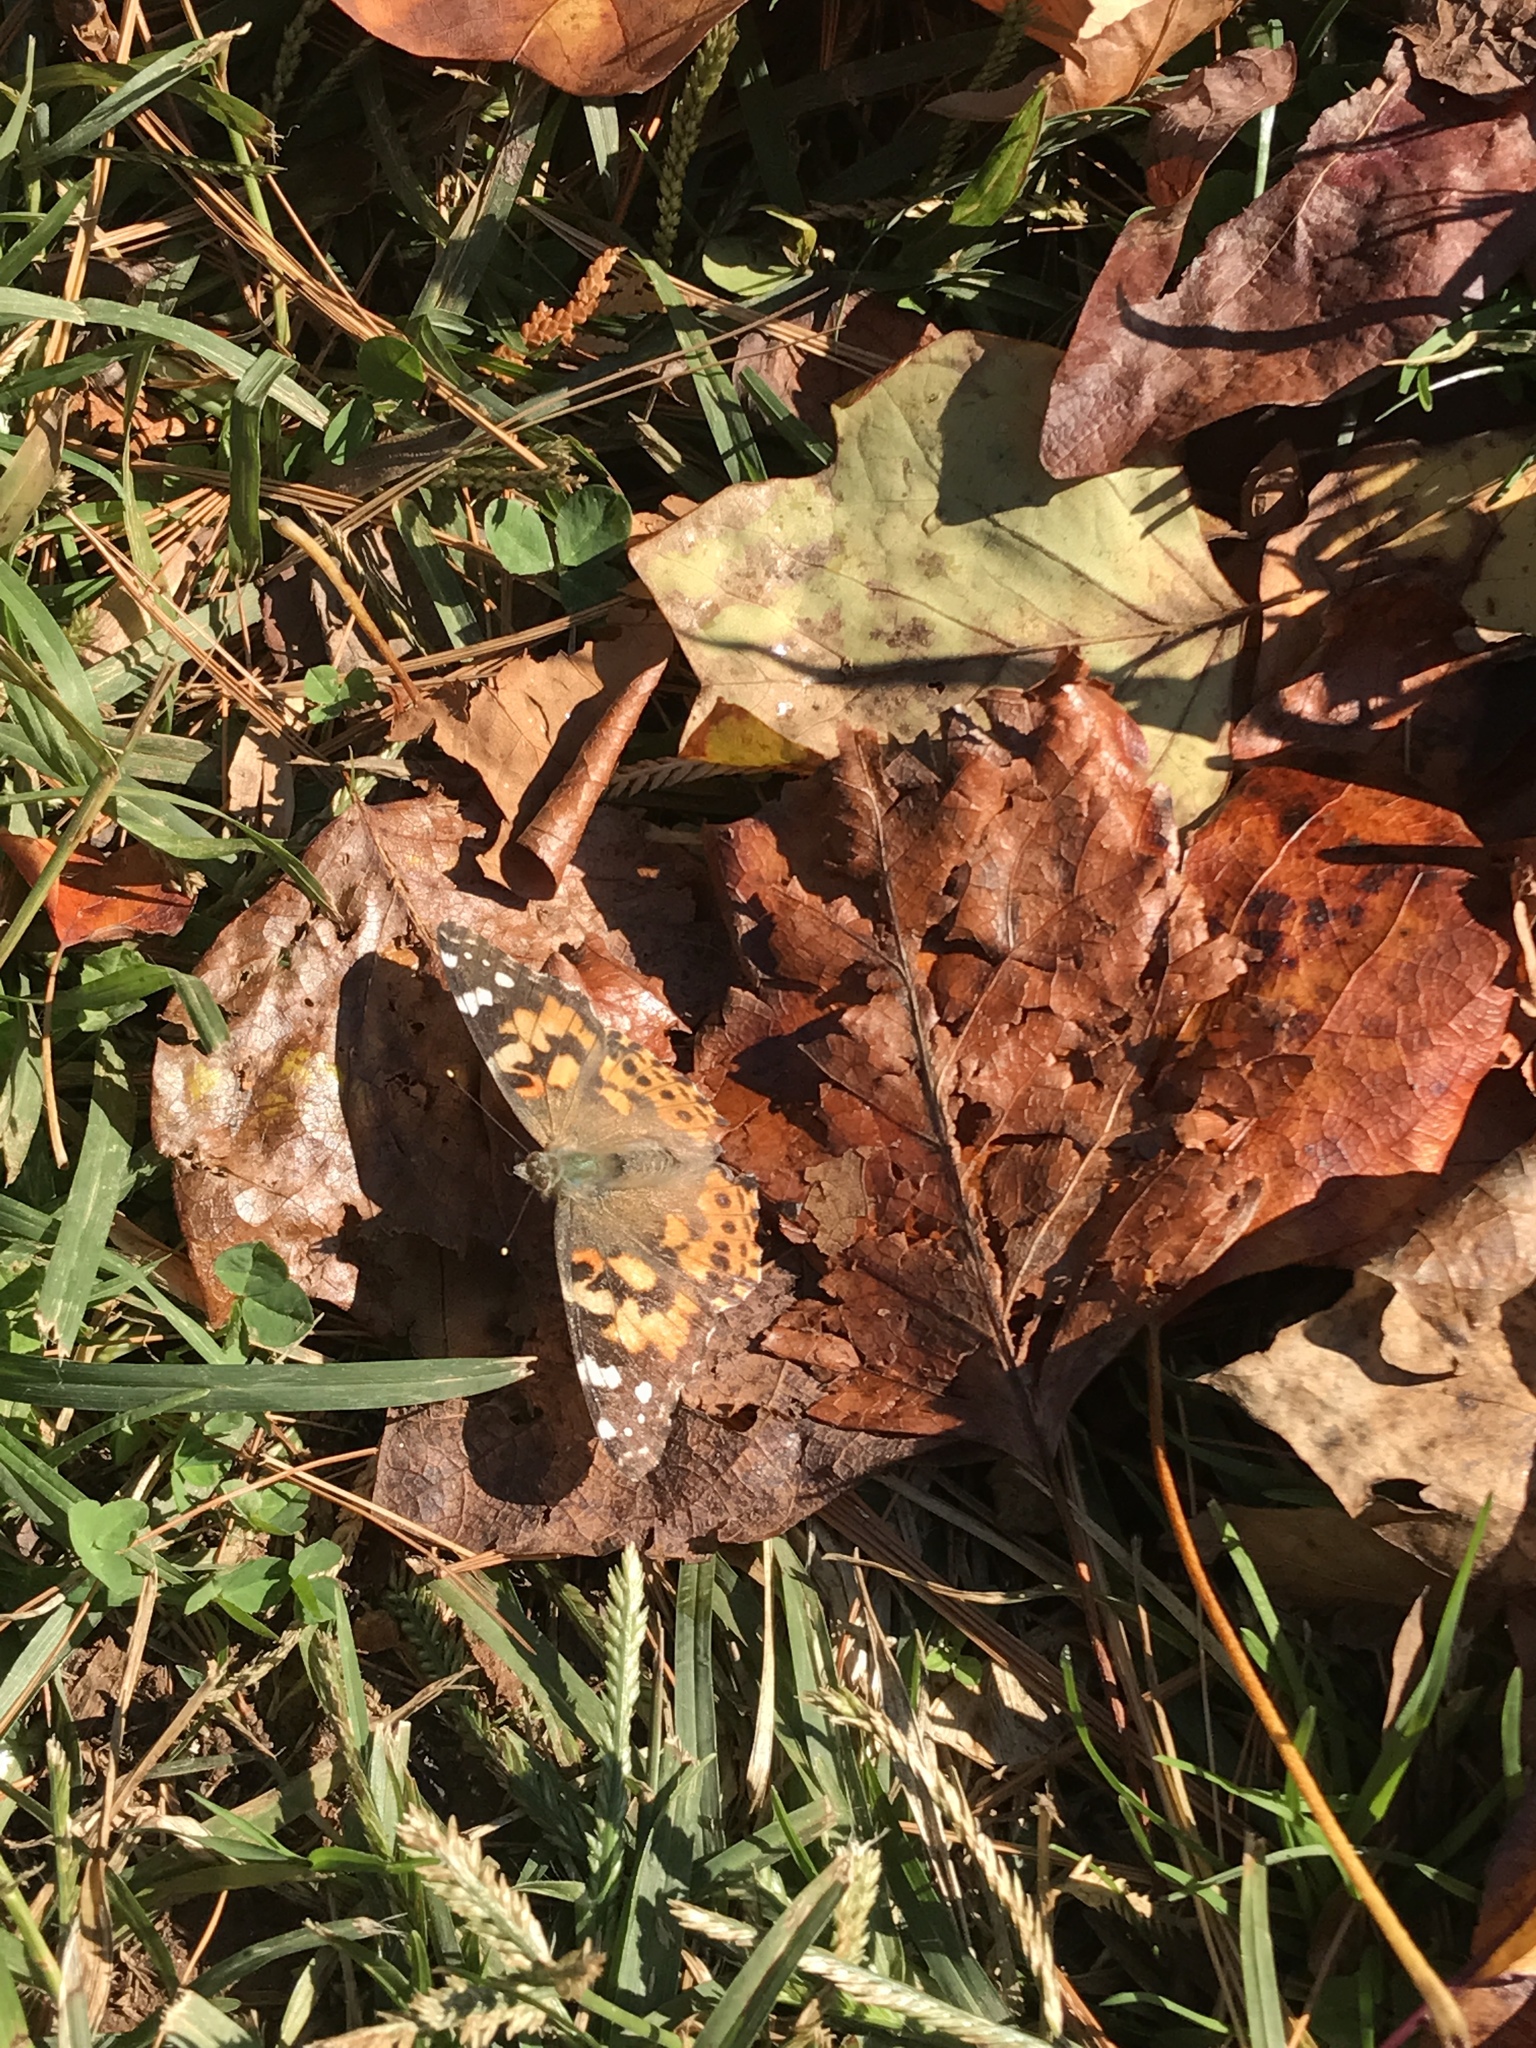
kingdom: Animalia
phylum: Arthropoda
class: Insecta
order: Lepidoptera
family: Nymphalidae
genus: Vanessa
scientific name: Vanessa cardui
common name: Painted lady
